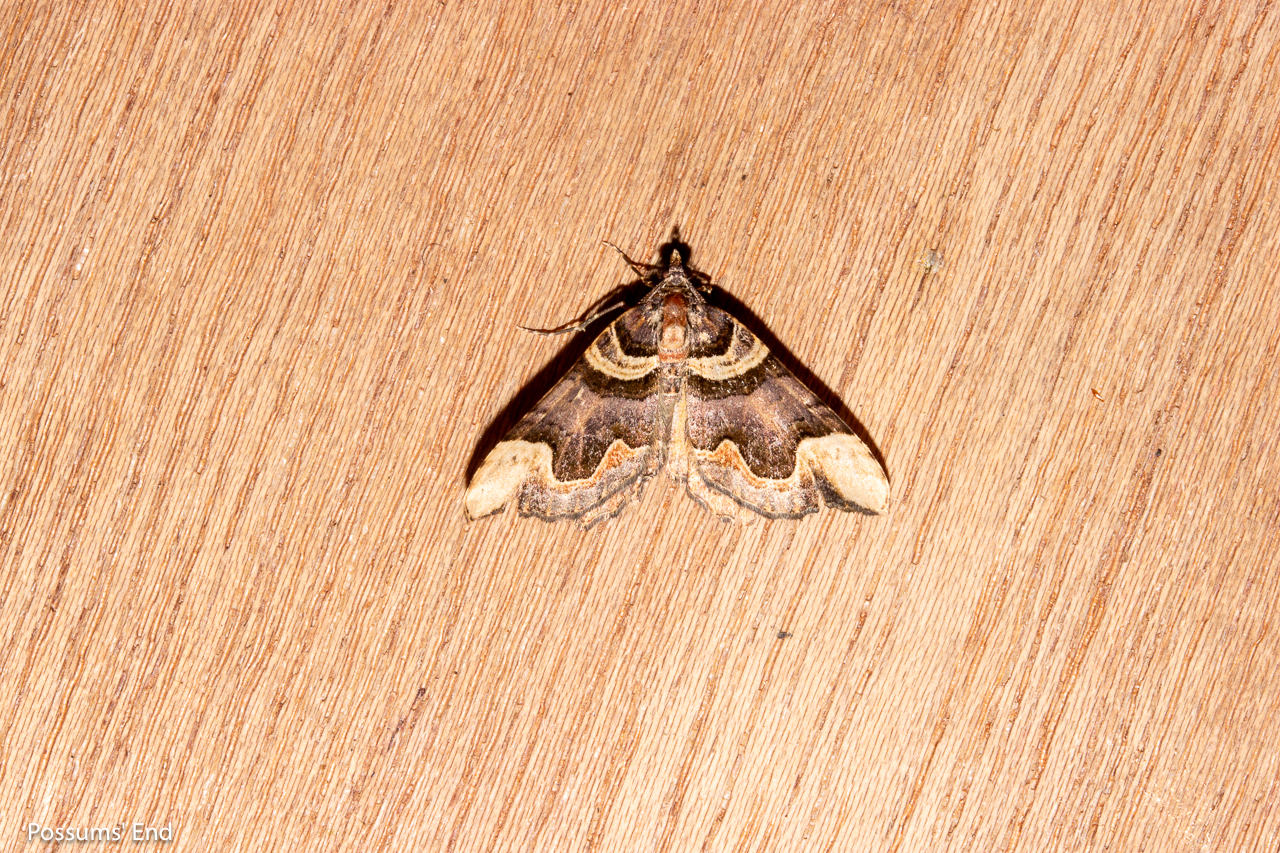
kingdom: Animalia
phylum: Arthropoda
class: Insecta
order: Lepidoptera
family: Geometridae
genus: Asaphodes
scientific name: Asaphodes chlamydota
